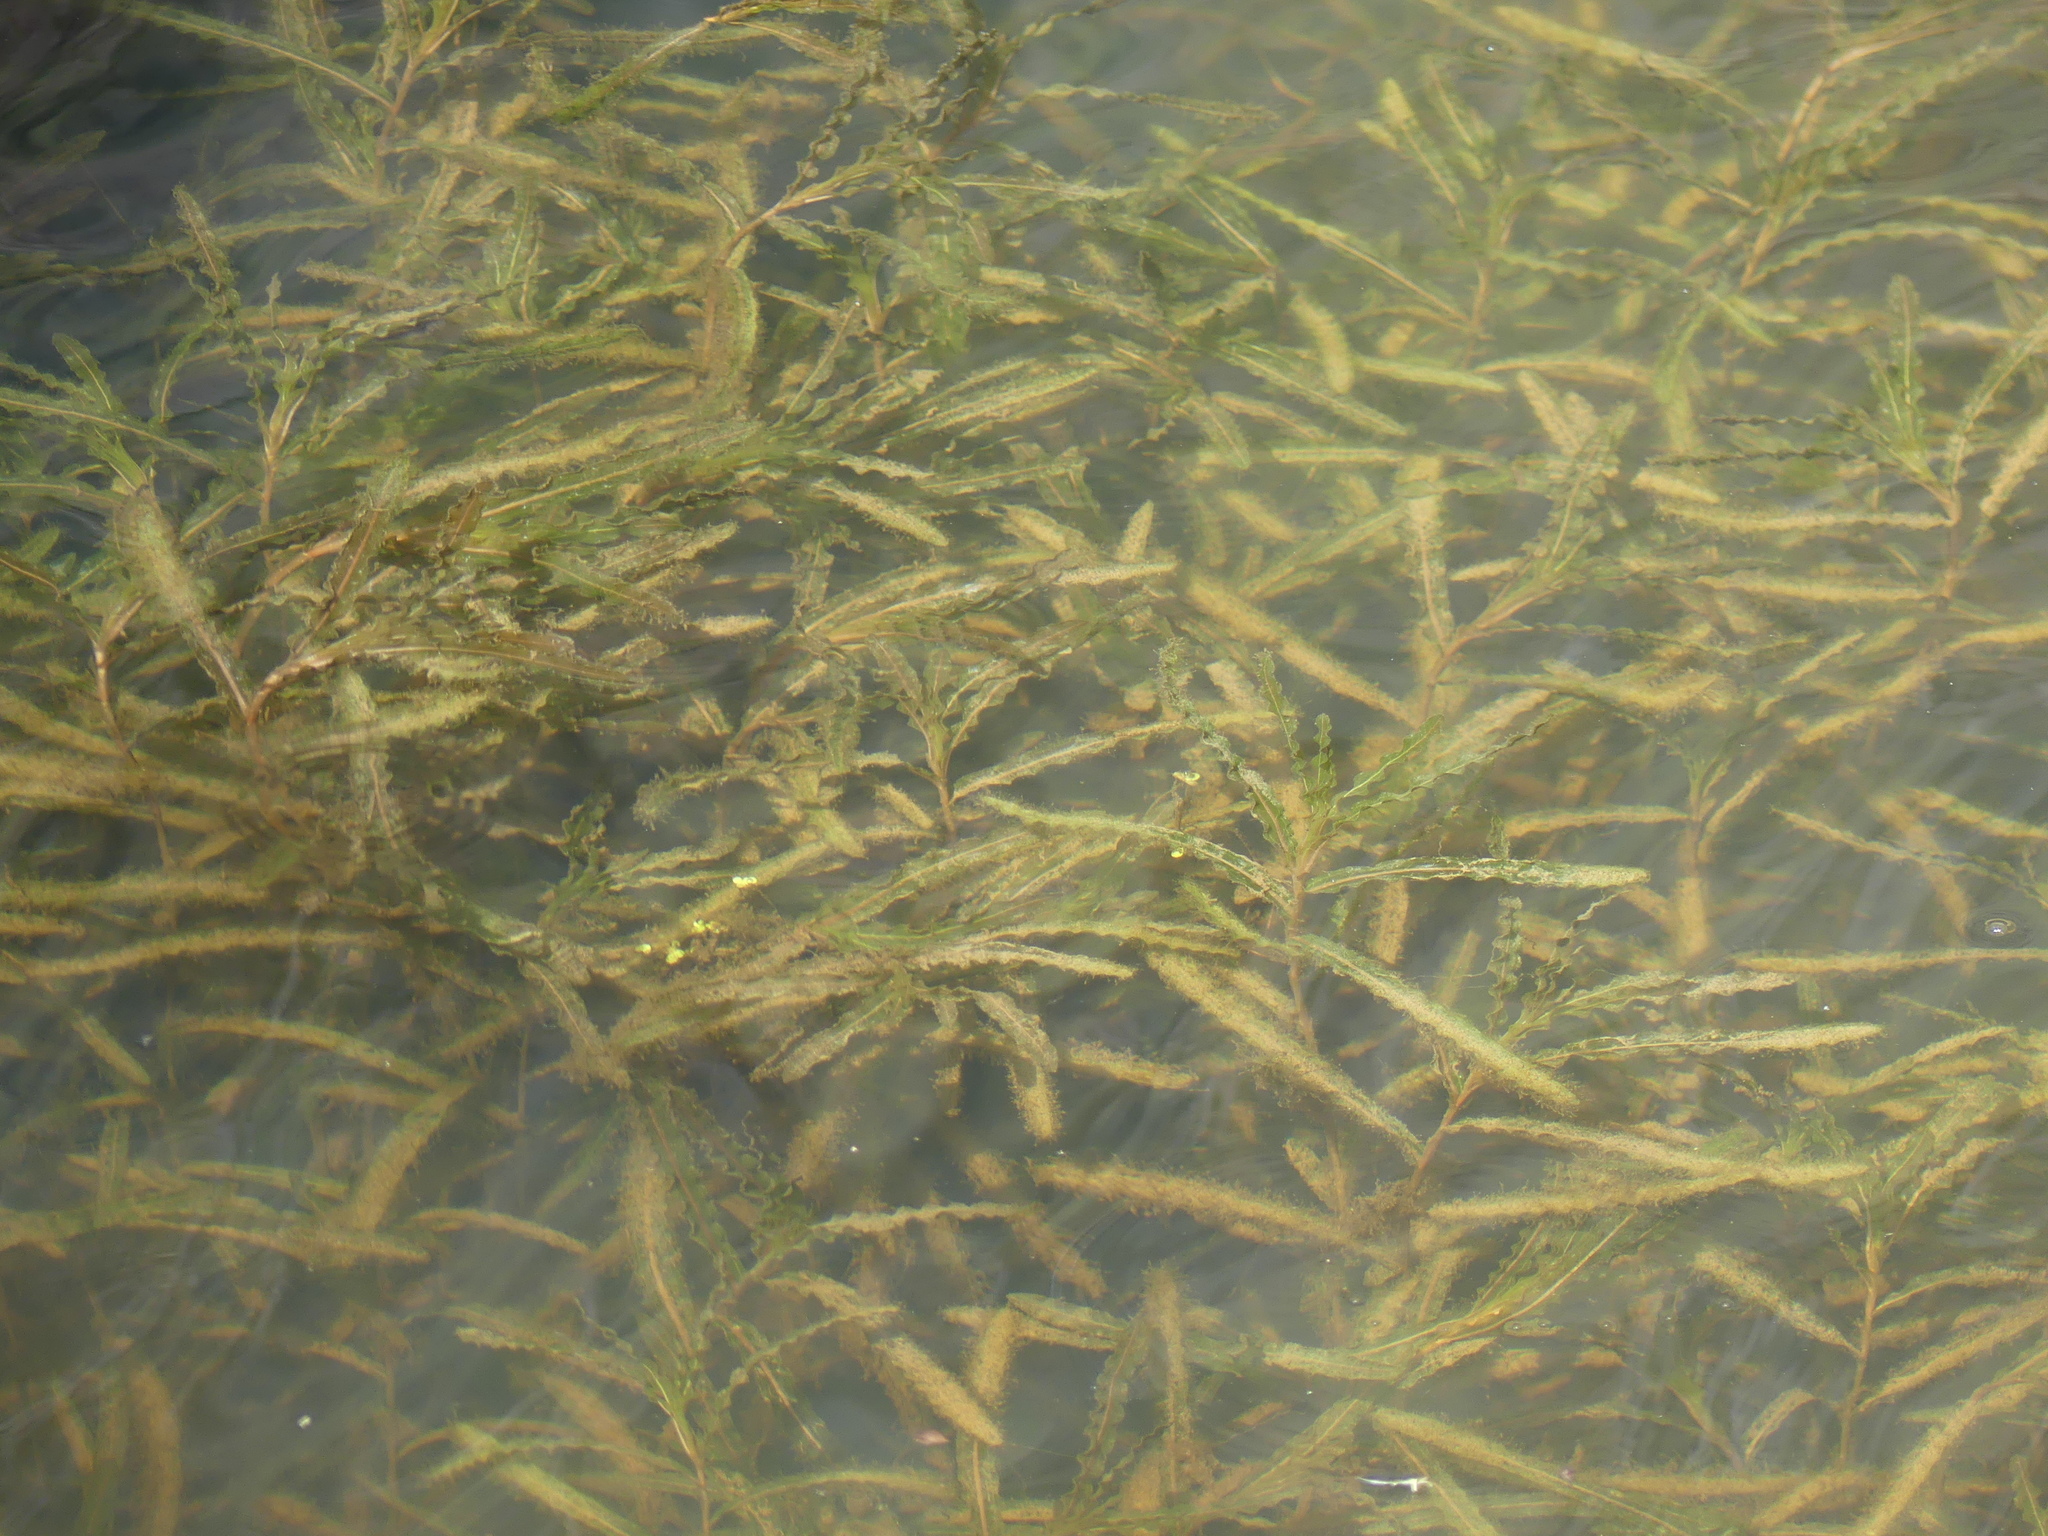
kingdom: Plantae
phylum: Tracheophyta
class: Liliopsida
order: Alismatales
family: Potamogetonaceae
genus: Potamogeton
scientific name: Potamogeton crispus
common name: Curled pondweed
